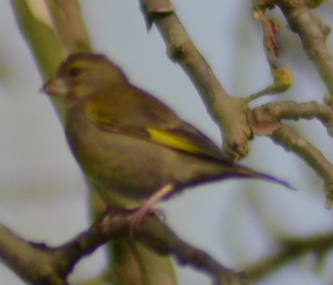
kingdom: Plantae
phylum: Tracheophyta
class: Liliopsida
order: Poales
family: Poaceae
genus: Chloris
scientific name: Chloris chloris
